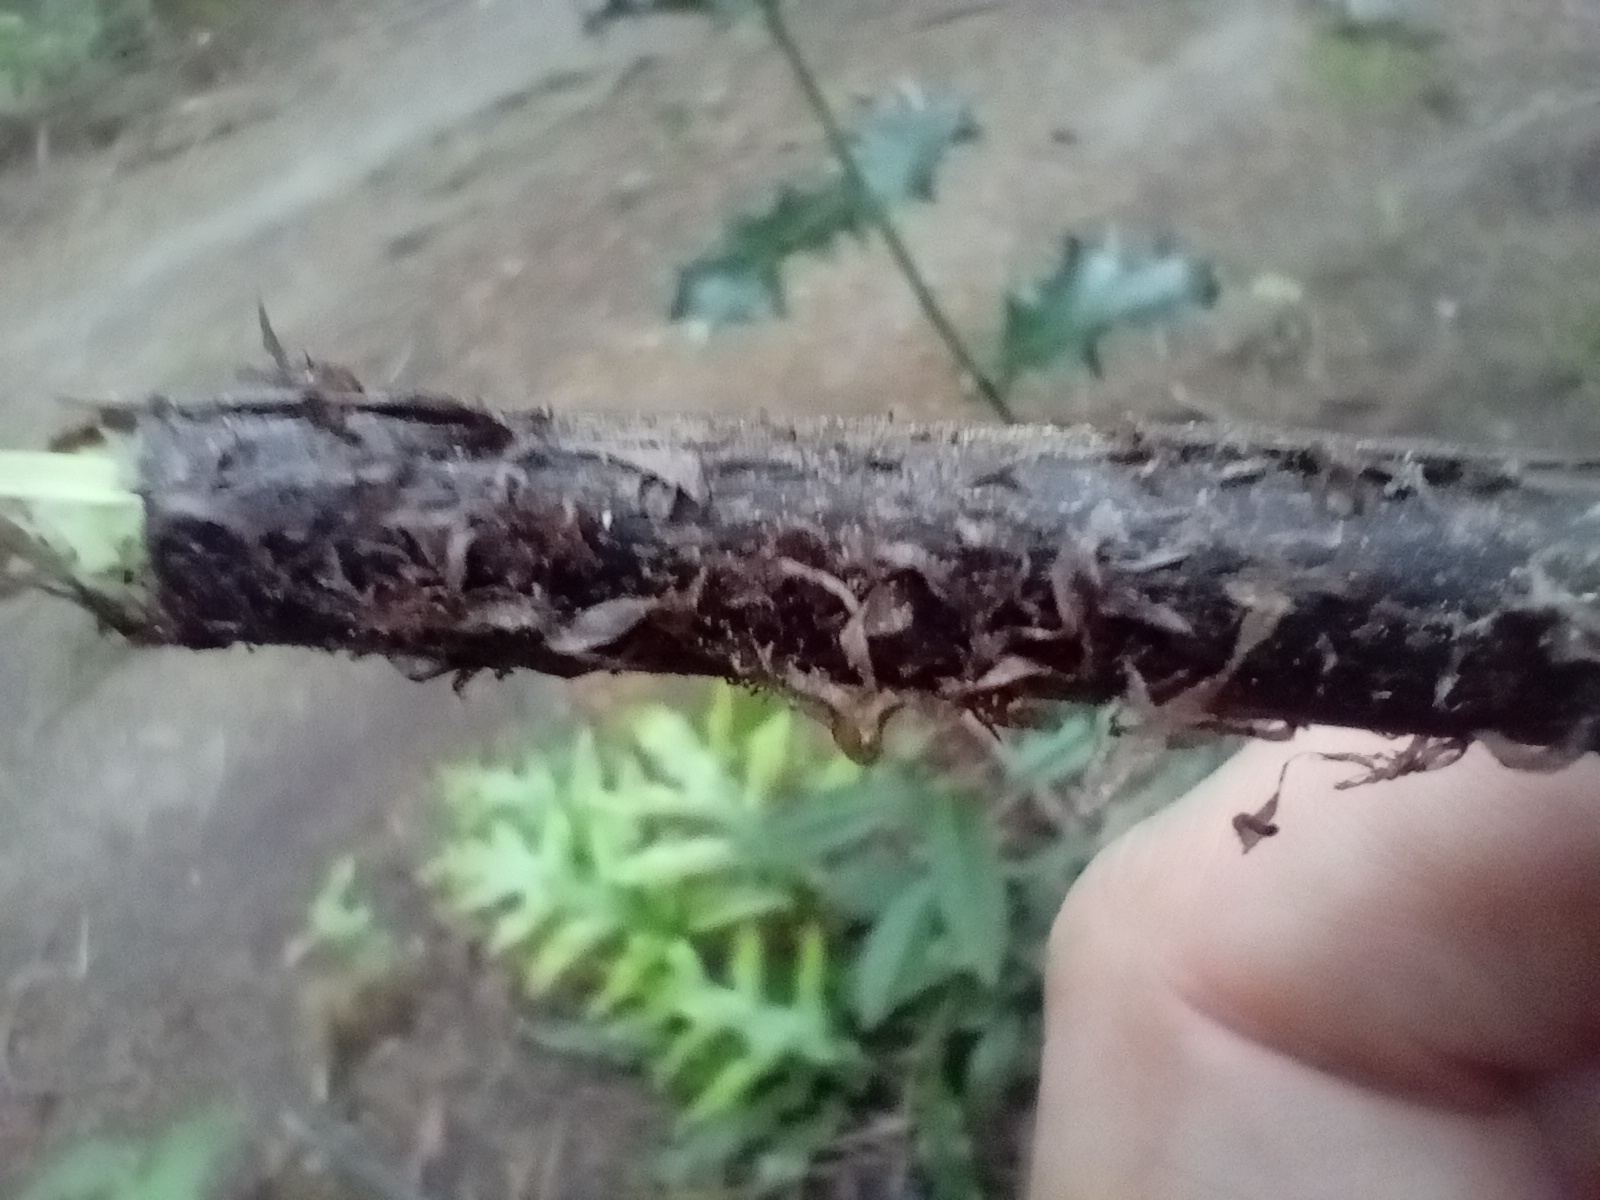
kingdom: Plantae
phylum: Tracheophyta
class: Polypodiopsida
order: Polypodiales
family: Aspleniaceae
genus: Asplenium
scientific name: Asplenium oblongifolium
